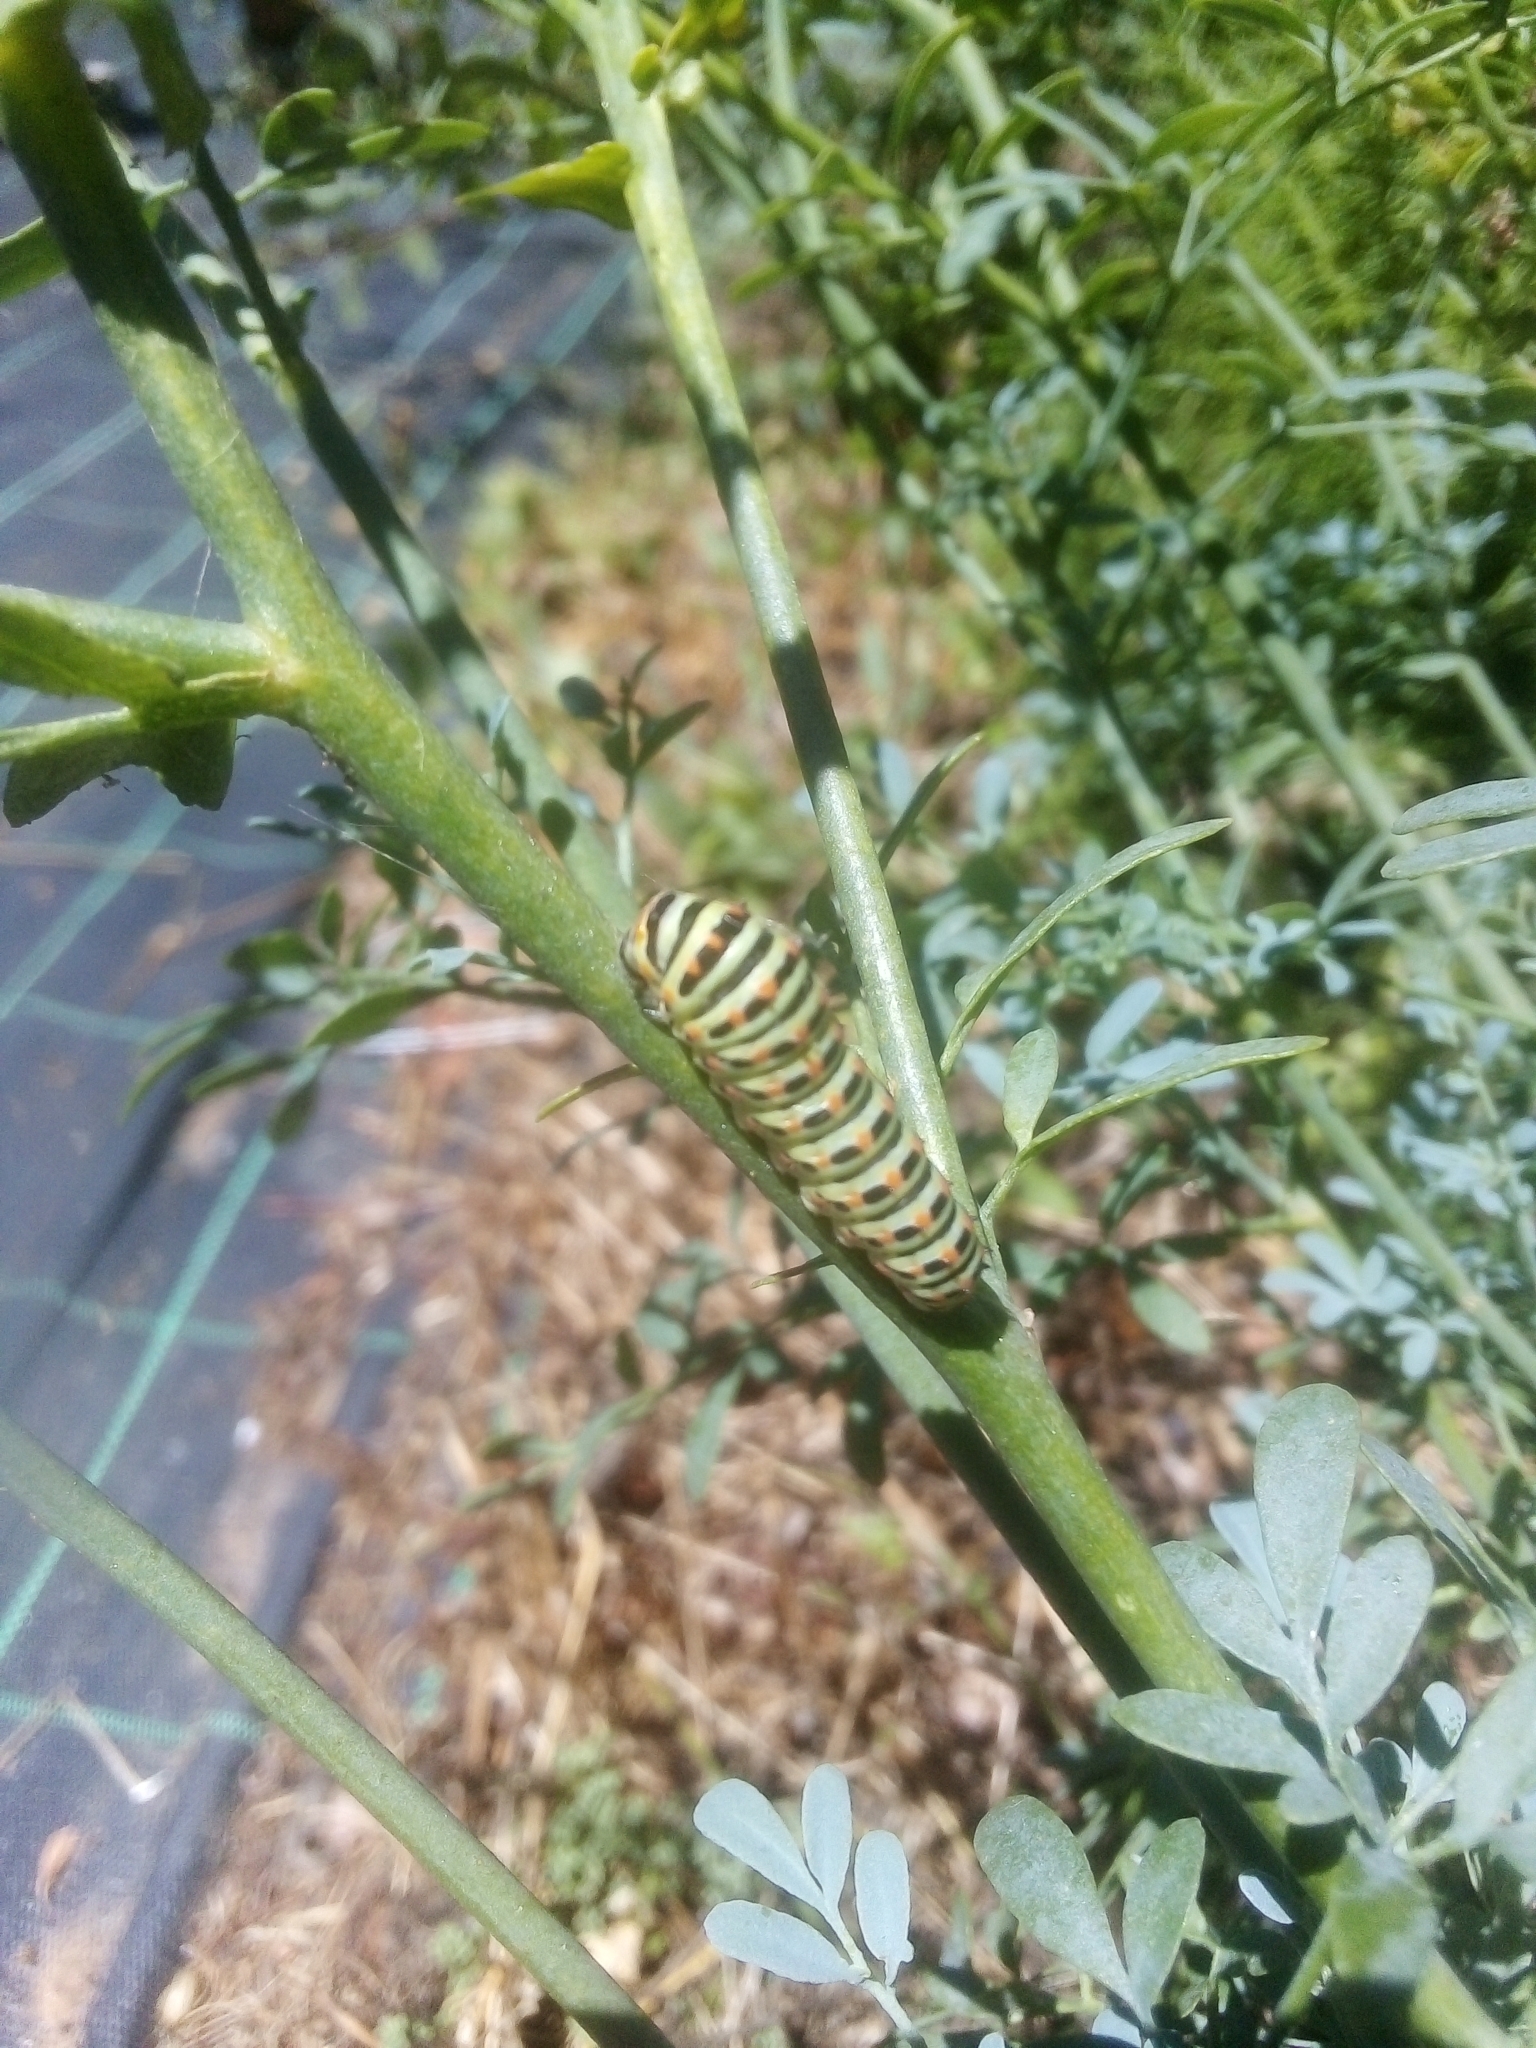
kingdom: Animalia
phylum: Arthropoda
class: Insecta
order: Lepidoptera
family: Papilionidae
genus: Papilio
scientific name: Papilio machaon
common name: Swallowtail
